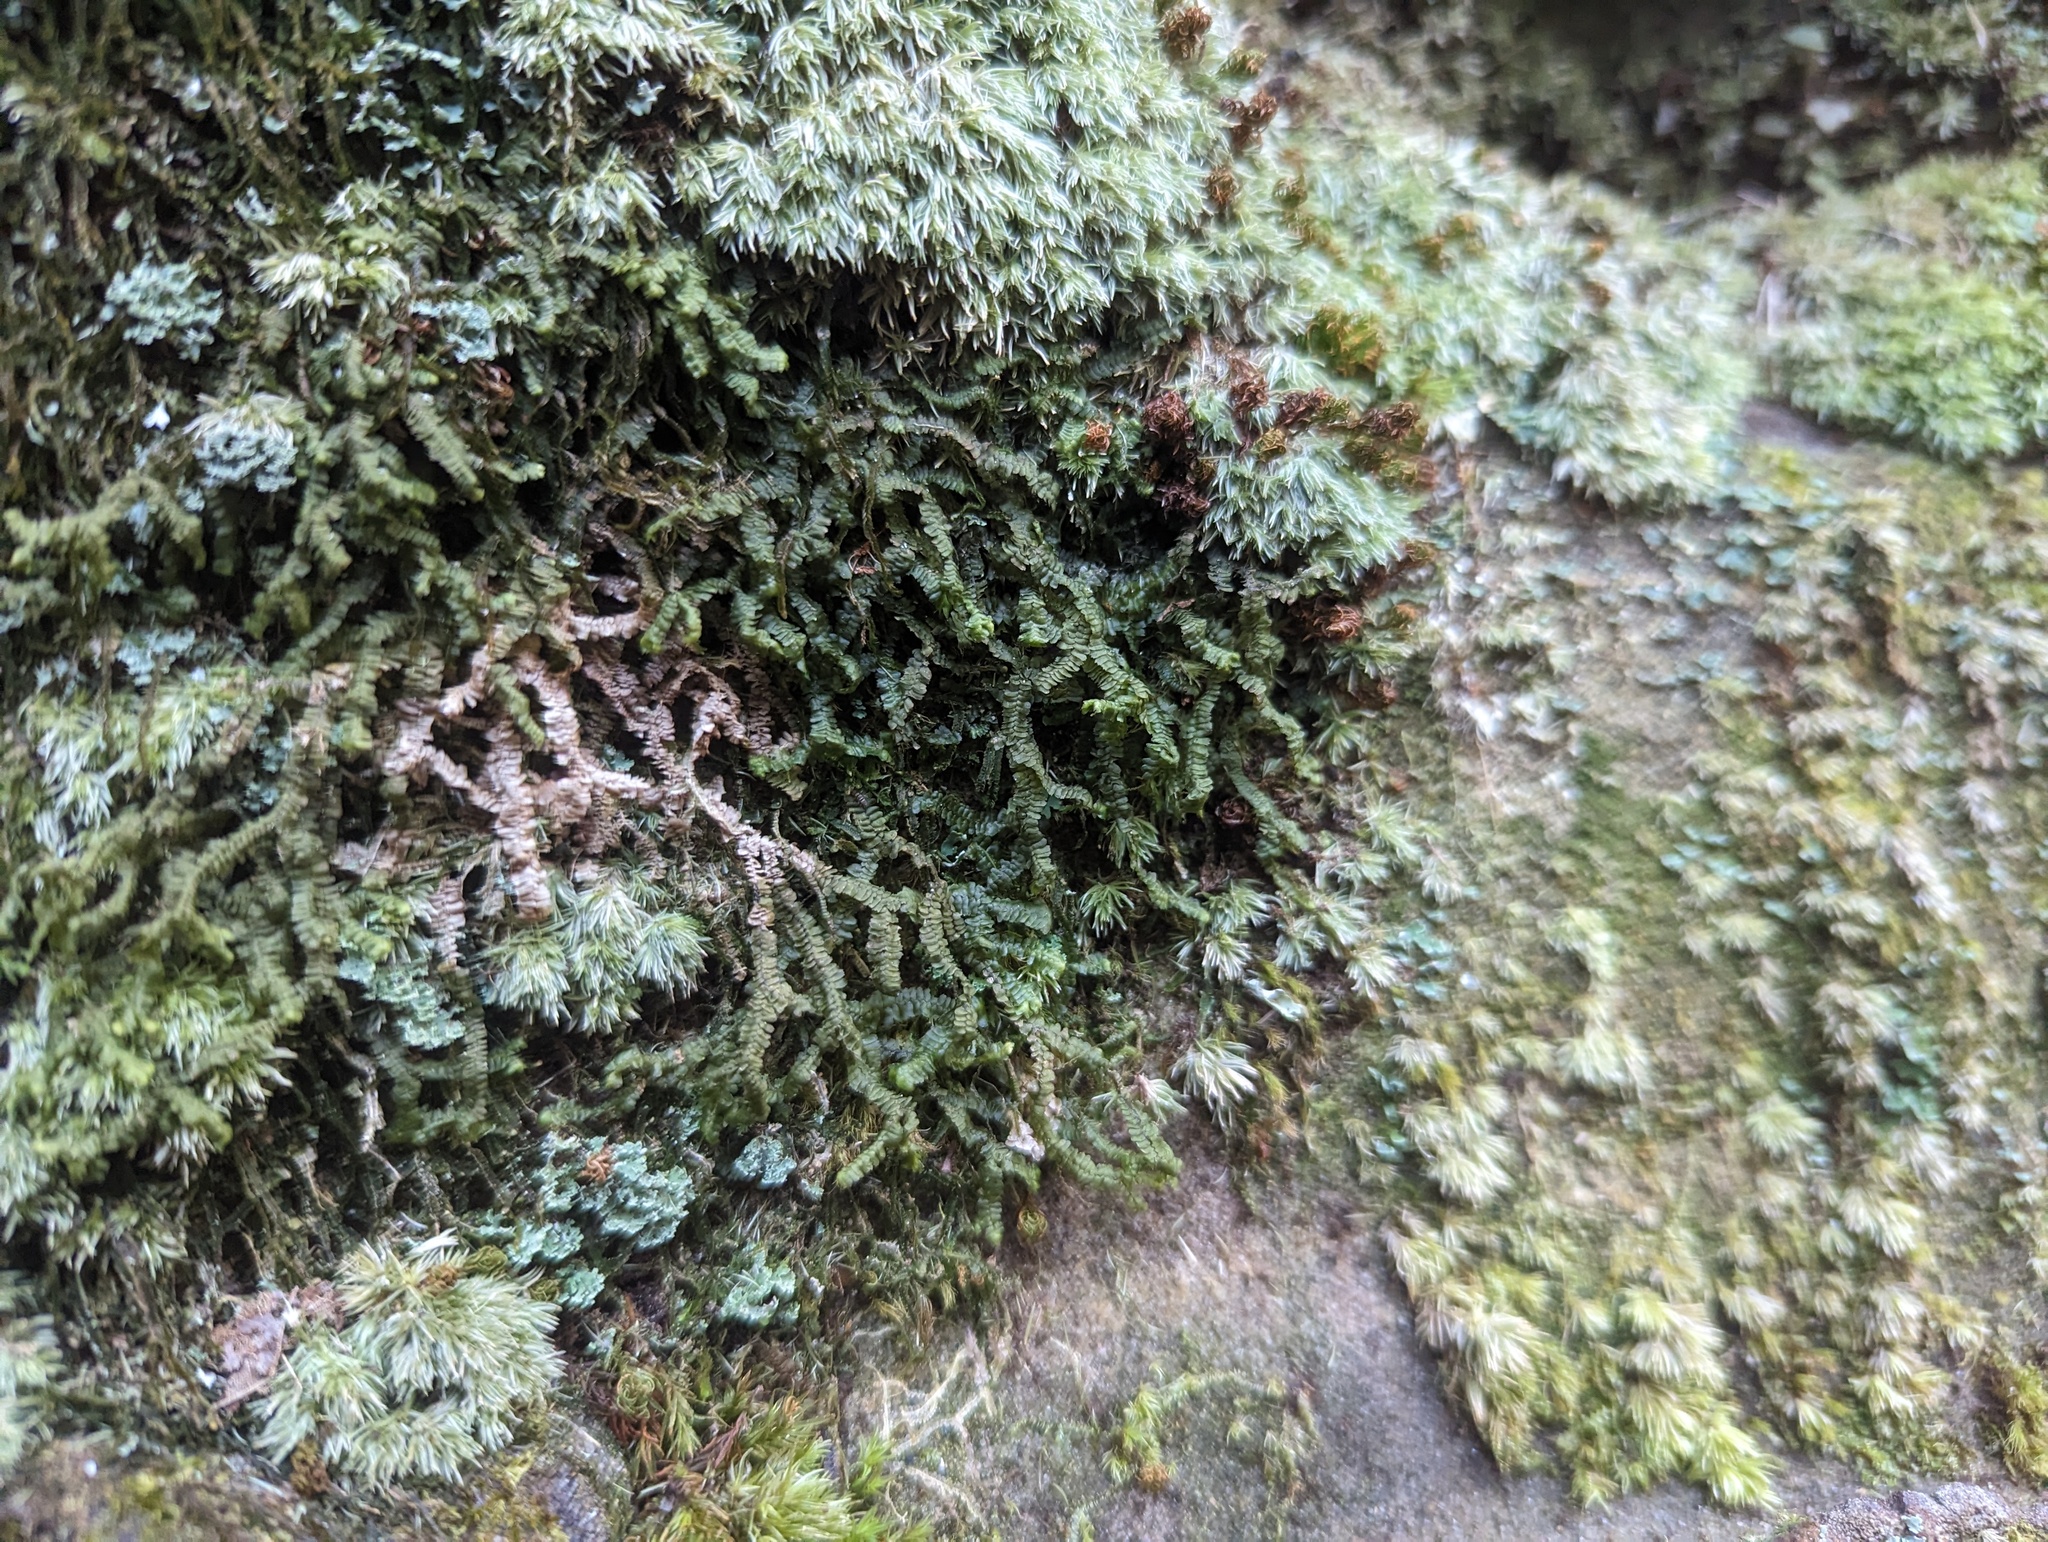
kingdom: Plantae
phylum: Marchantiophyta
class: Jungermanniopsida
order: Jungermanniales
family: Lepidoziaceae
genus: Bazzania
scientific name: Bazzania trilobata
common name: Three-lobed whipwort
